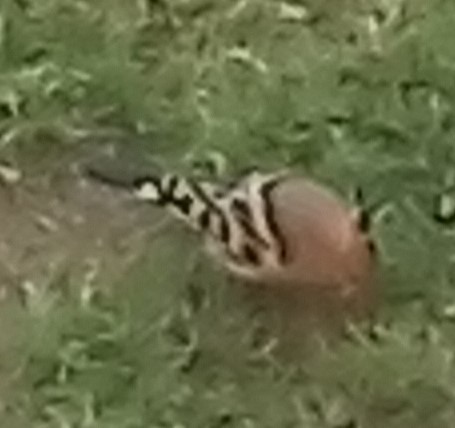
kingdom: Animalia
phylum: Chordata
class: Aves
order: Bucerotiformes
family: Upupidae
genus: Upupa
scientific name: Upupa epops
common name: Eurasian hoopoe
